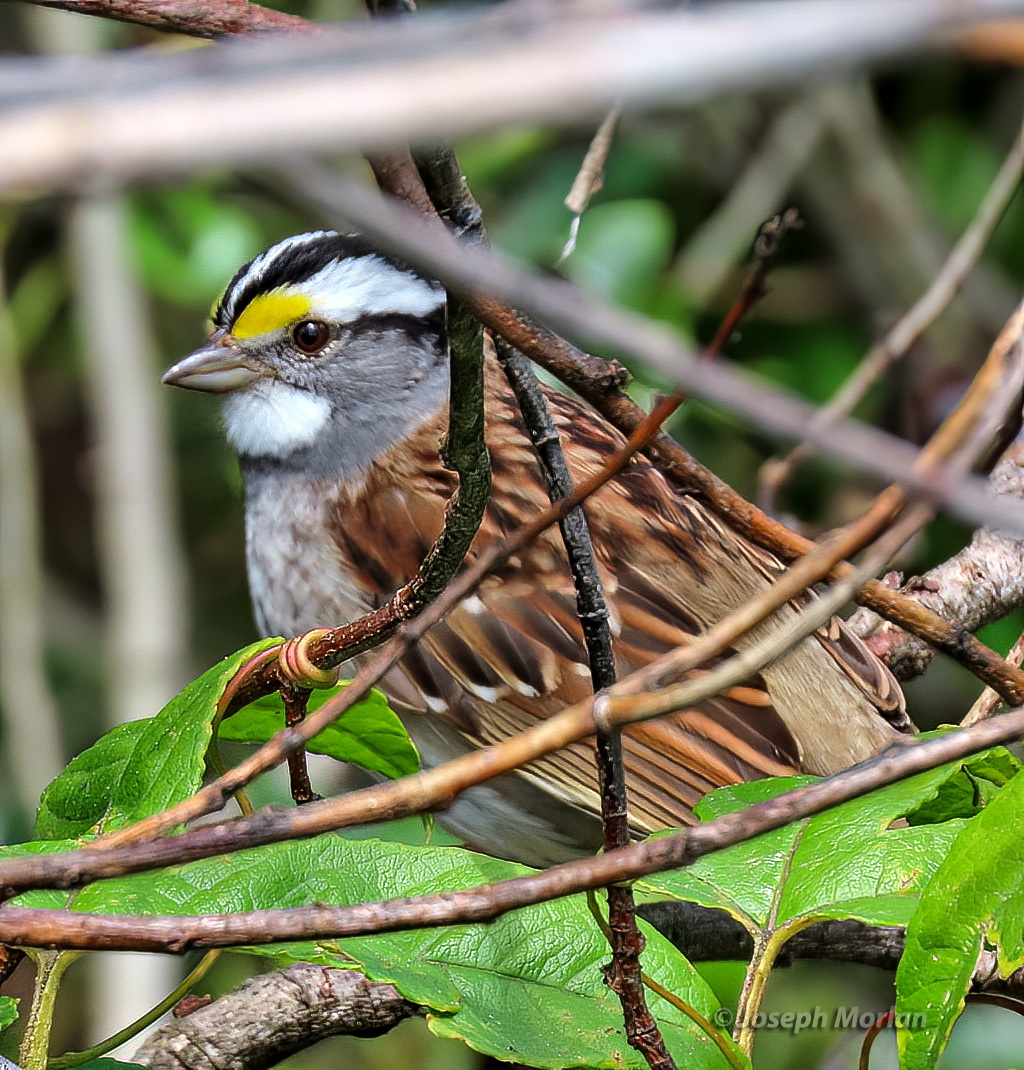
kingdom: Animalia
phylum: Chordata
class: Aves
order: Passeriformes
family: Passerellidae
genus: Zonotrichia
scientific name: Zonotrichia albicollis
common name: White-throated sparrow
